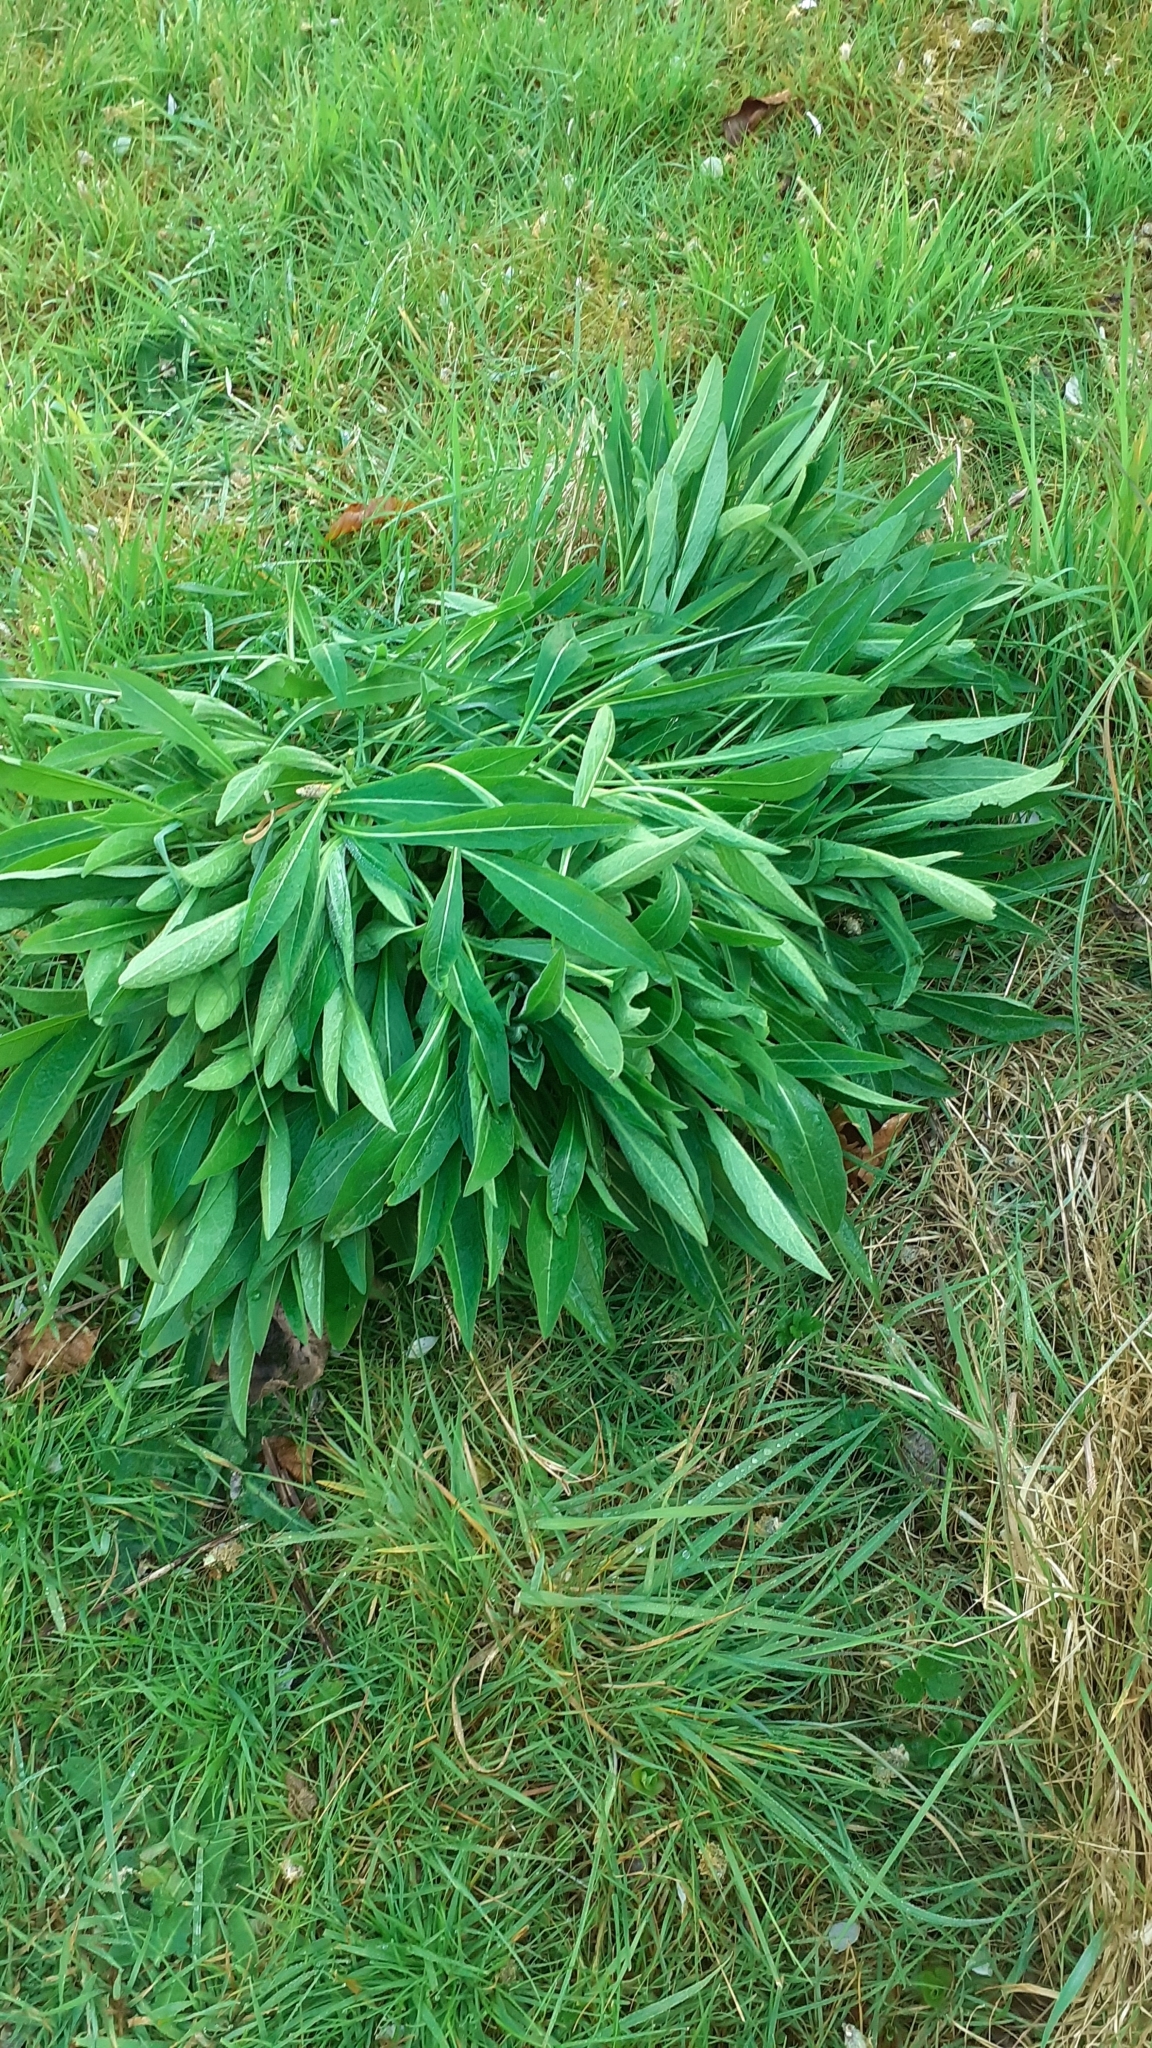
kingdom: Plantae
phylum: Tracheophyta
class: Magnoliopsida
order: Asterales
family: Asteraceae
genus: Centaurea
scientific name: Centaurea nigra
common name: Lesser knapweed
